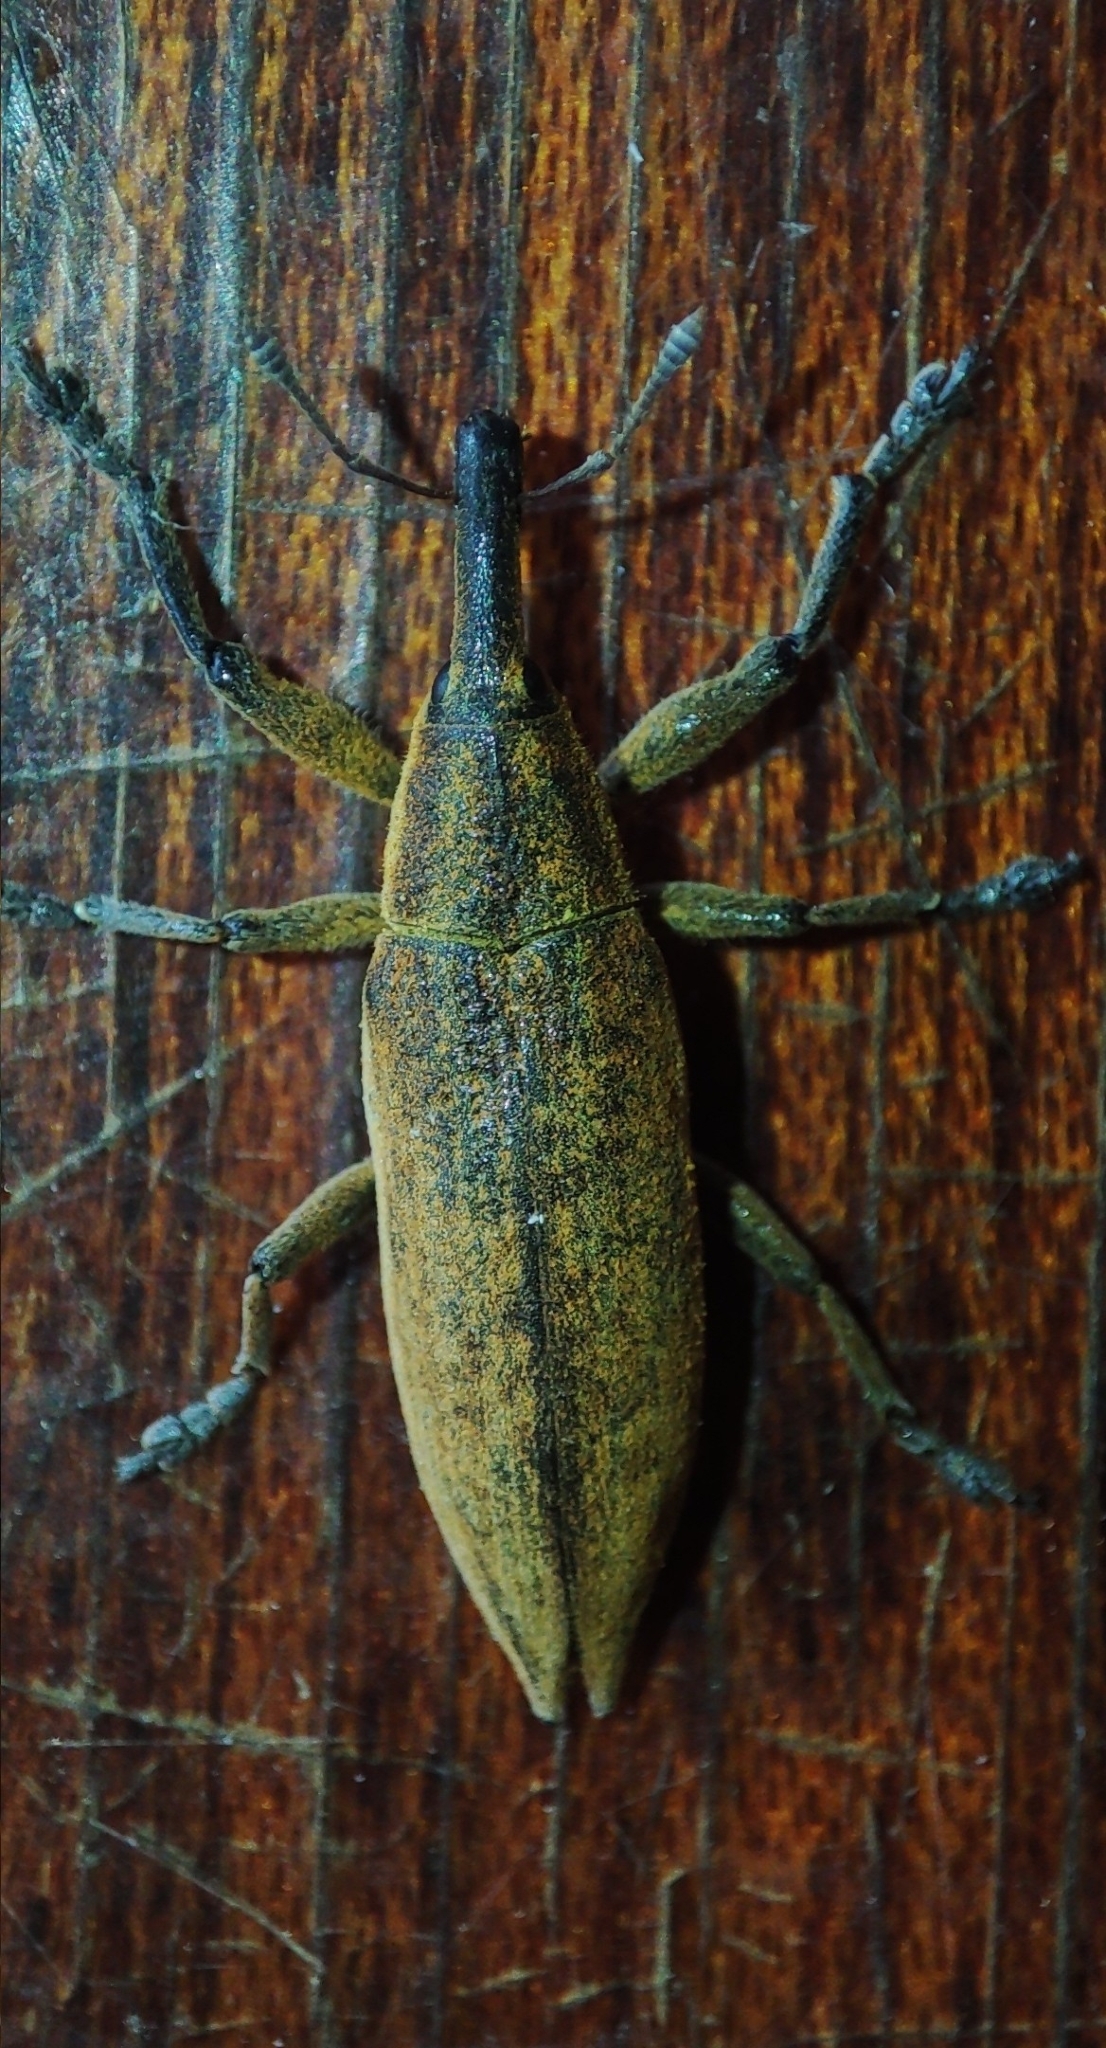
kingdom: Animalia
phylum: Arthropoda
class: Insecta
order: Coleoptera
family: Curculionidae
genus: Lixus
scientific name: Lixus iridis
